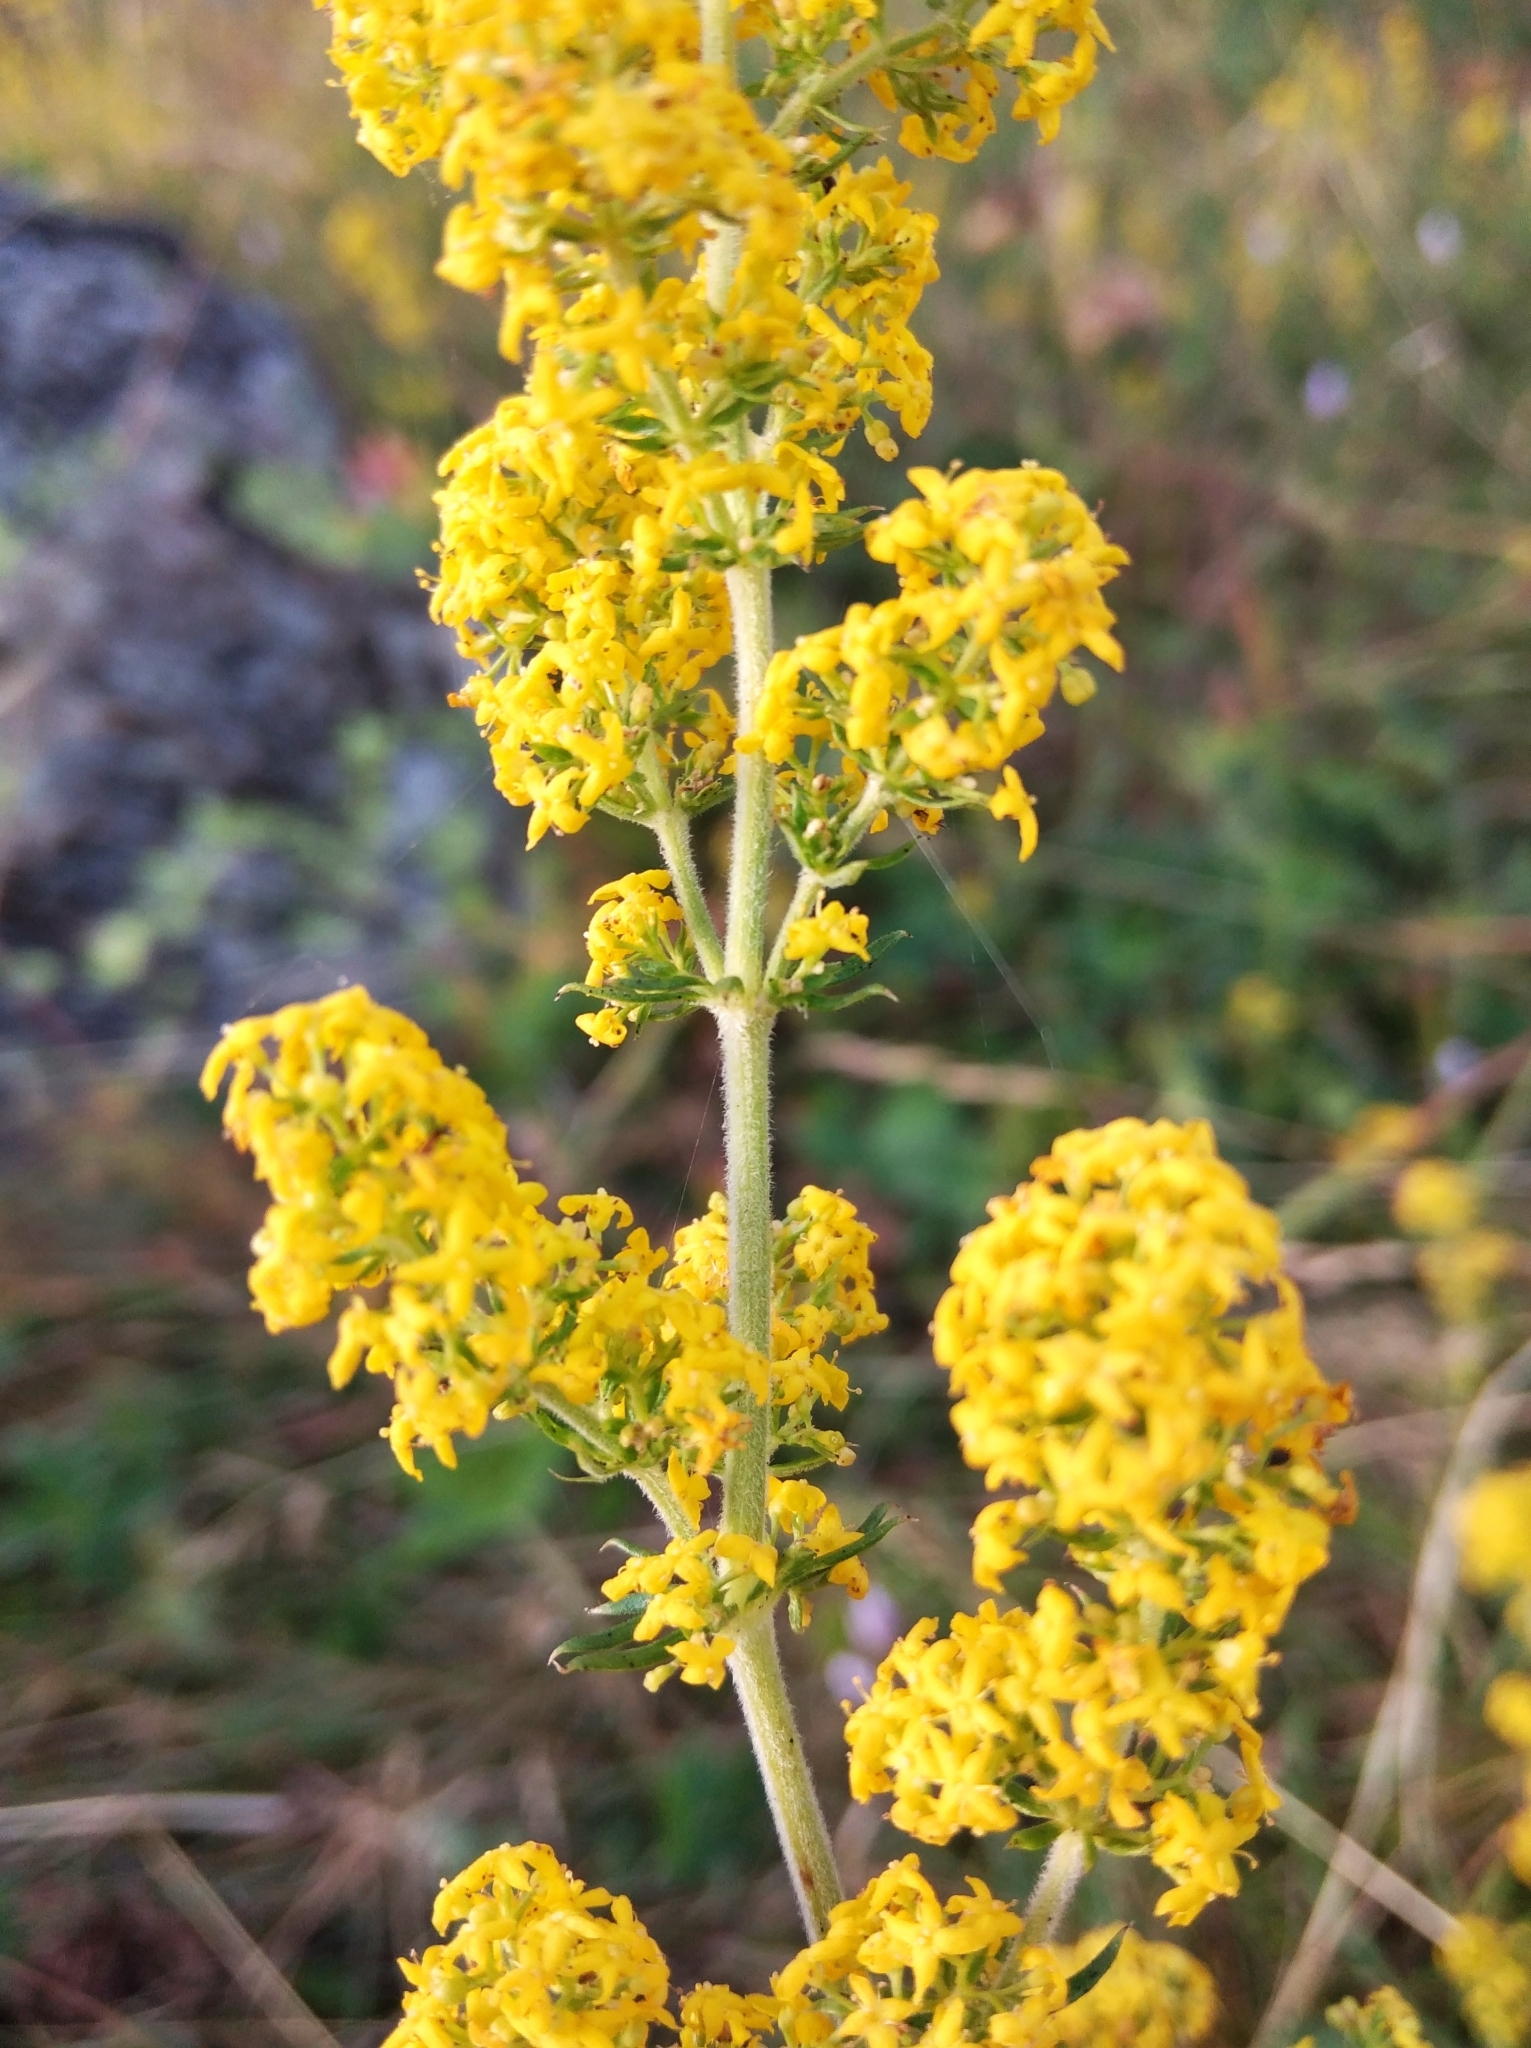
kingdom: Plantae
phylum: Tracheophyta
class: Magnoliopsida
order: Gentianales
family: Rubiaceae
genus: Galium
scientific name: Galium verum
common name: Lady's bedstraw
